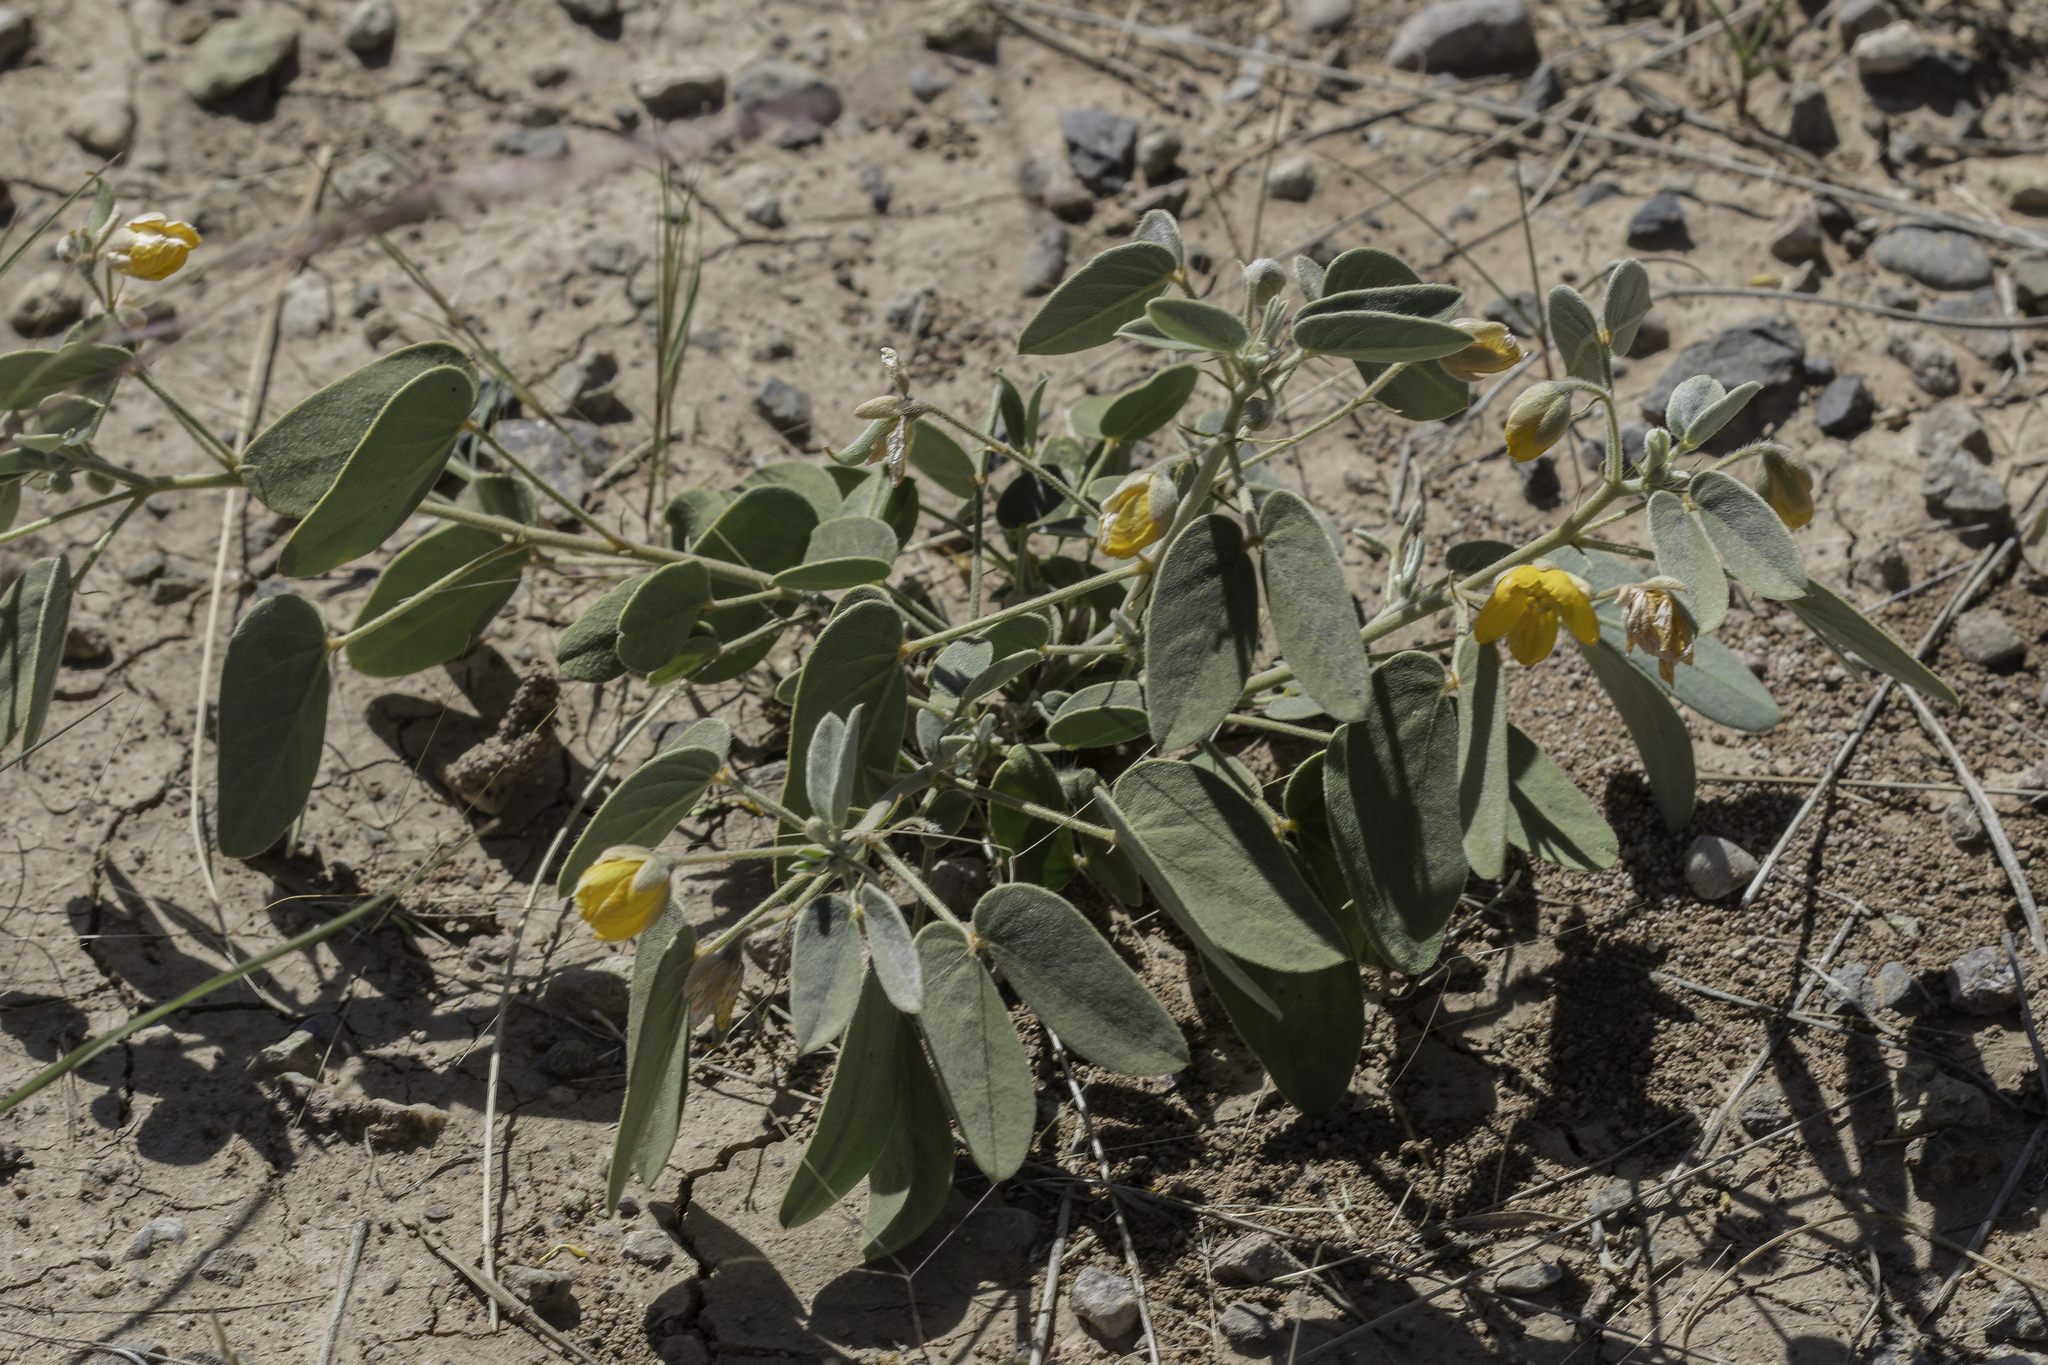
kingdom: Plantae
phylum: Tracheophyta
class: Magnoliopsida
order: Fabales
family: Fabaceae
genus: Senna
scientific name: Senna bauhinioides
